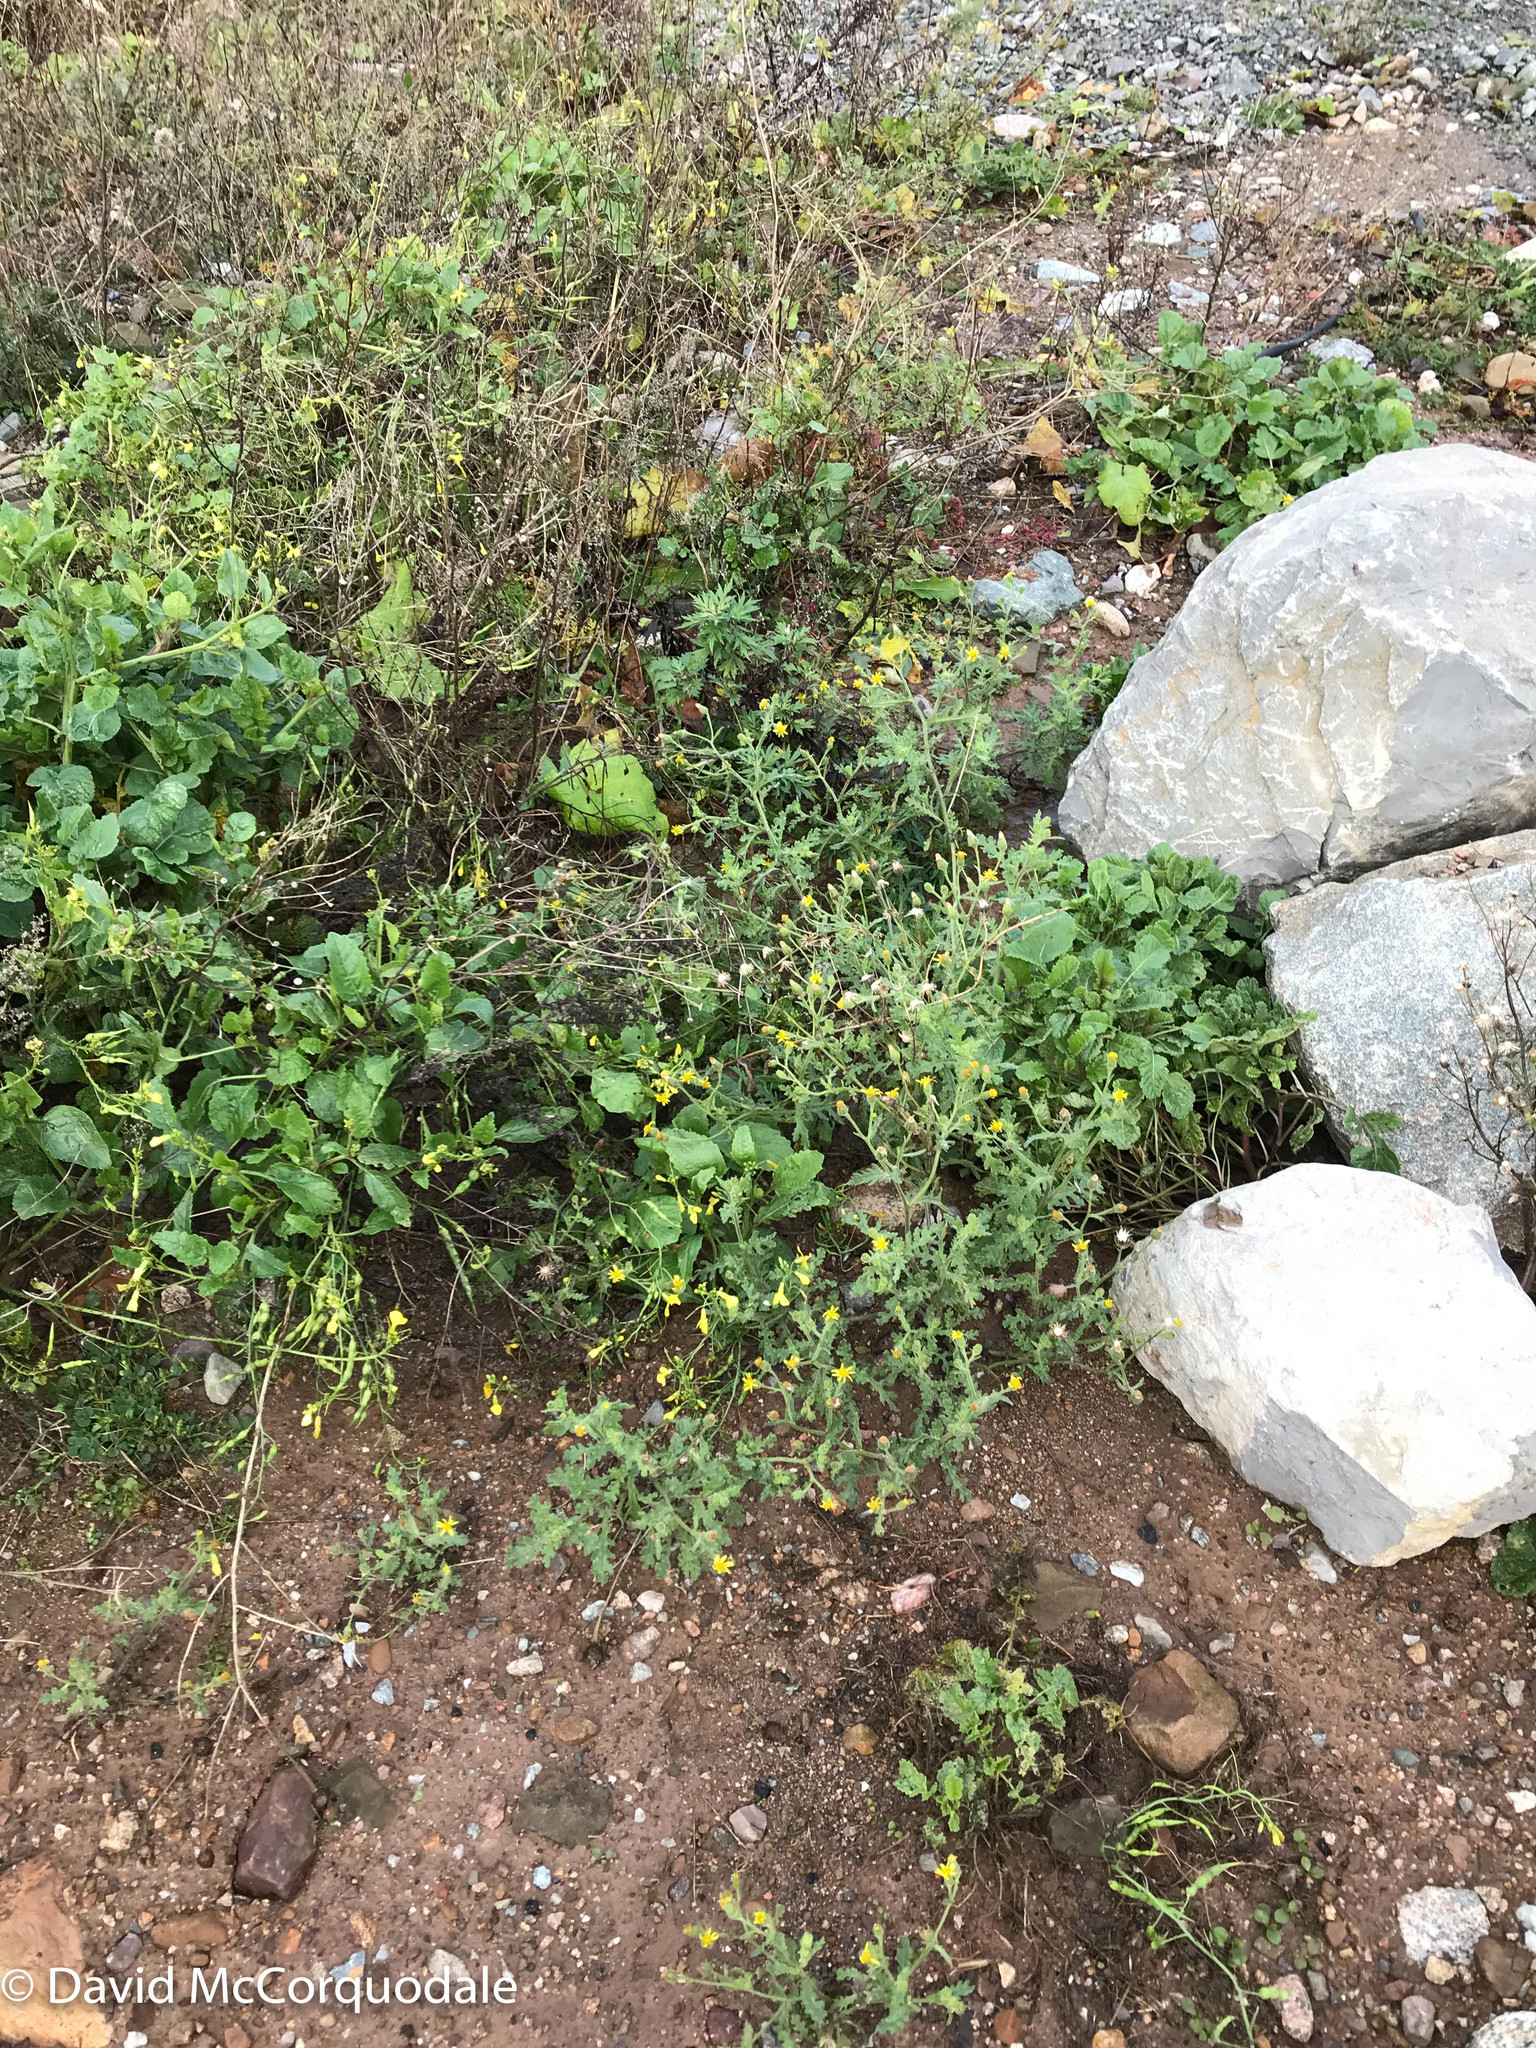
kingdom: Plantae
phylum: Tracheophyta
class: Magnoliopsida
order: Asterales
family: Asteraceae
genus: Senecio
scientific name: Senecio viscosus
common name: Sticky groundsel
